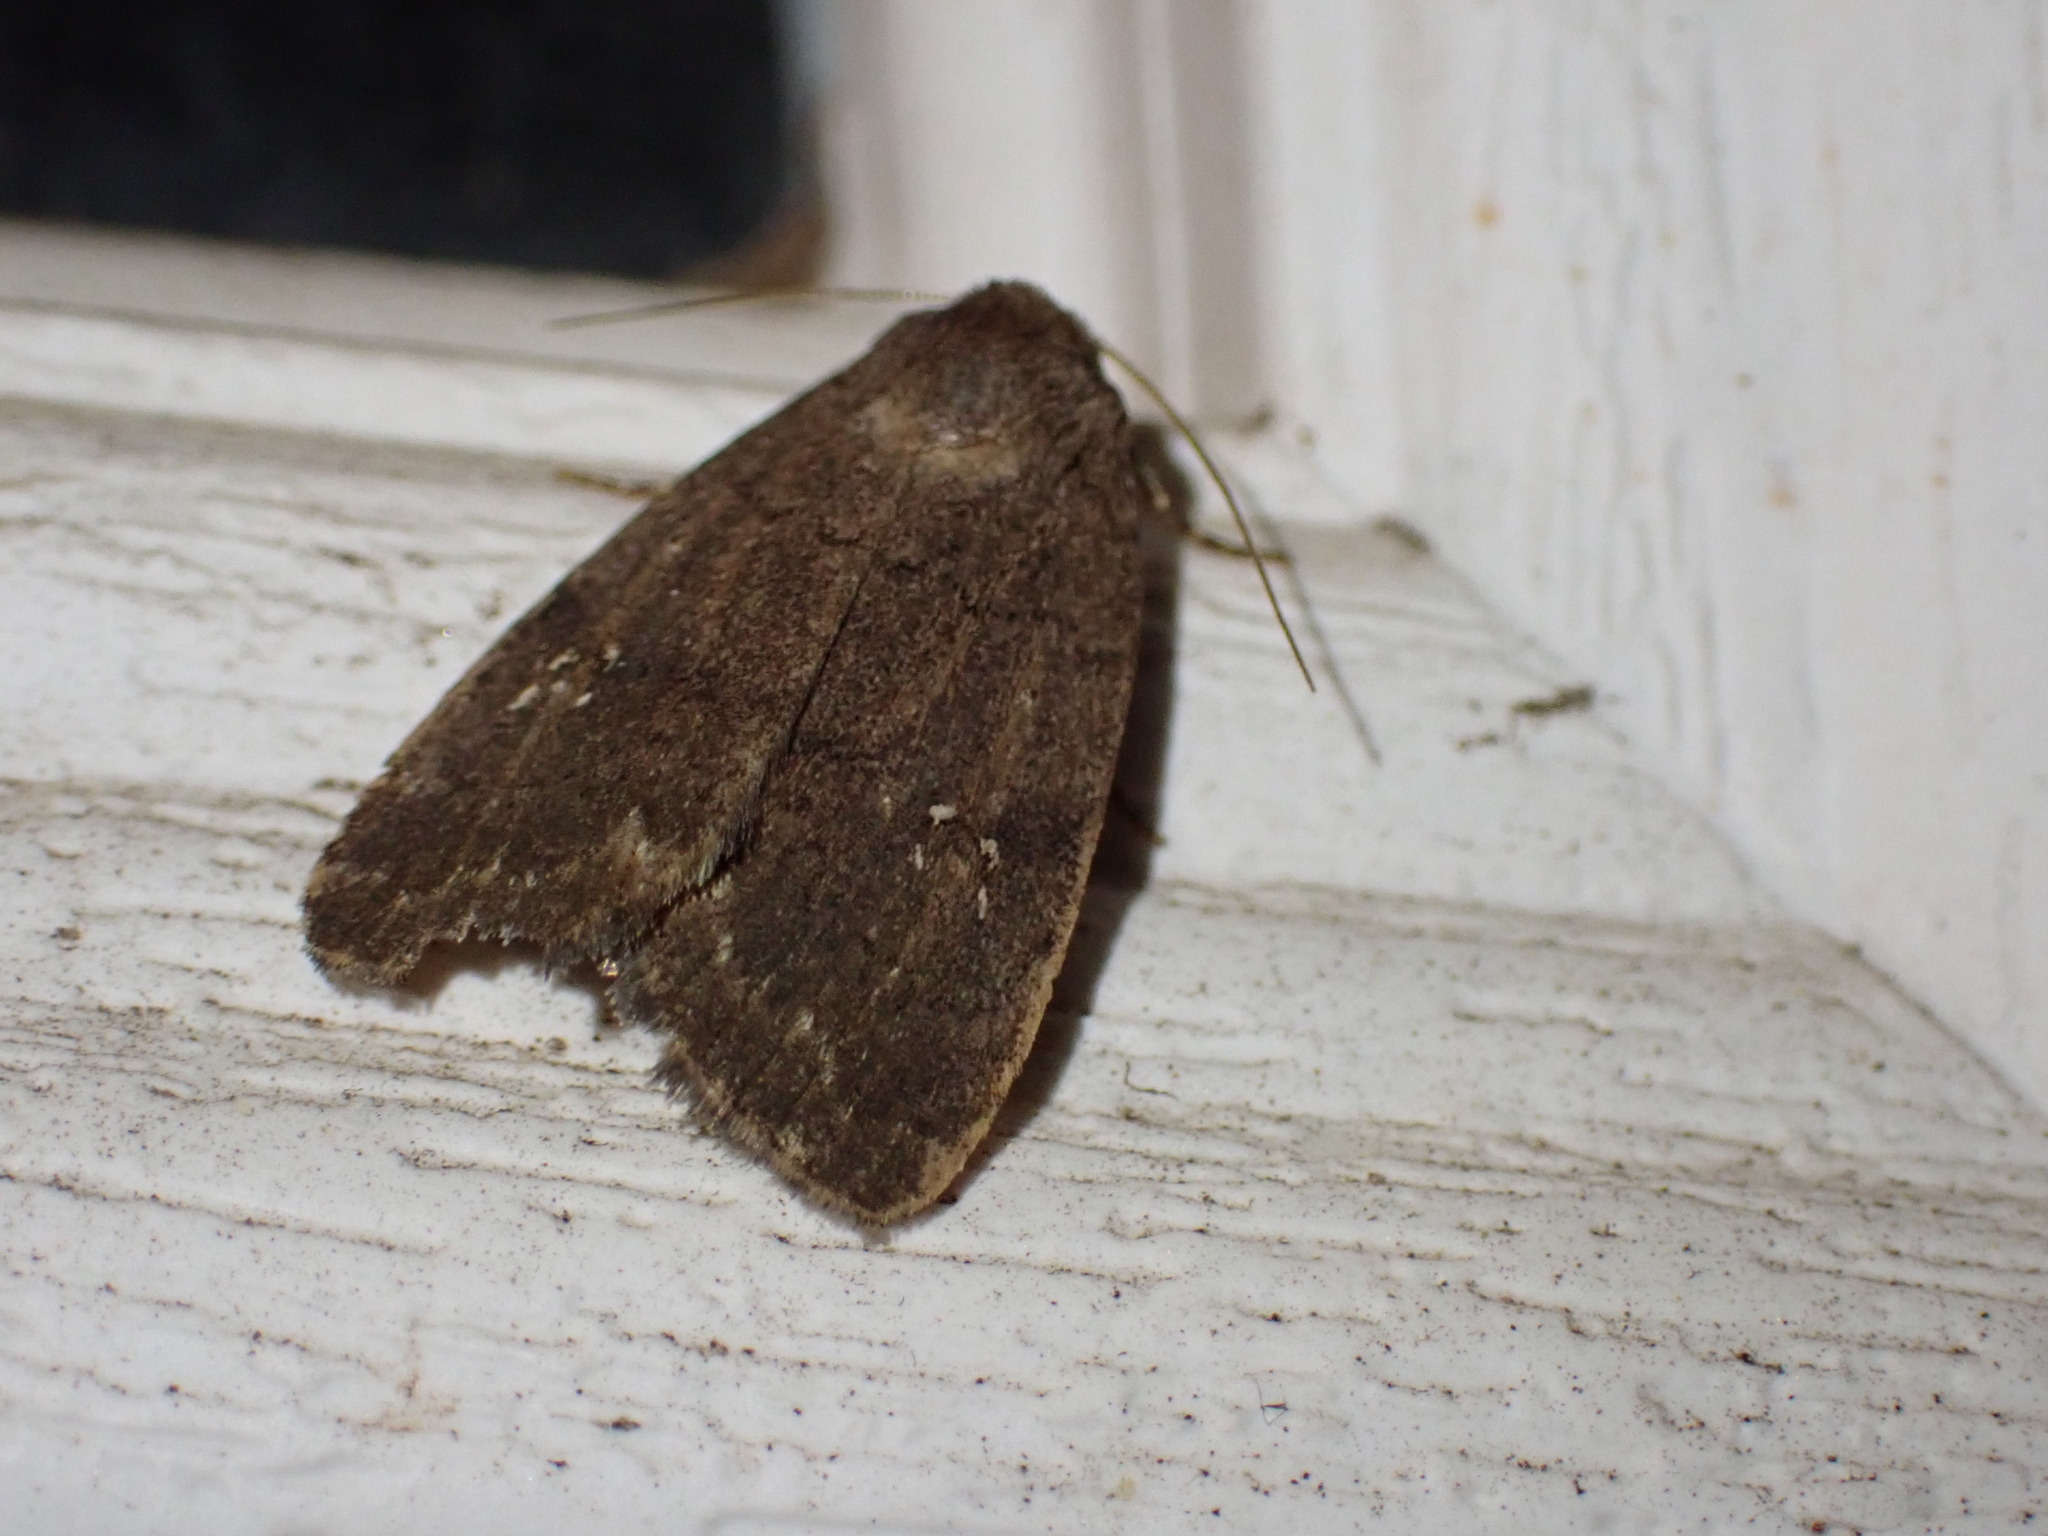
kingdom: Animalia
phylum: Arthropoda
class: Insecta
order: Lepidoptera
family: Noctuidae
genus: Athetis
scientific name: Athetis tarda
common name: Slowpoke moth
